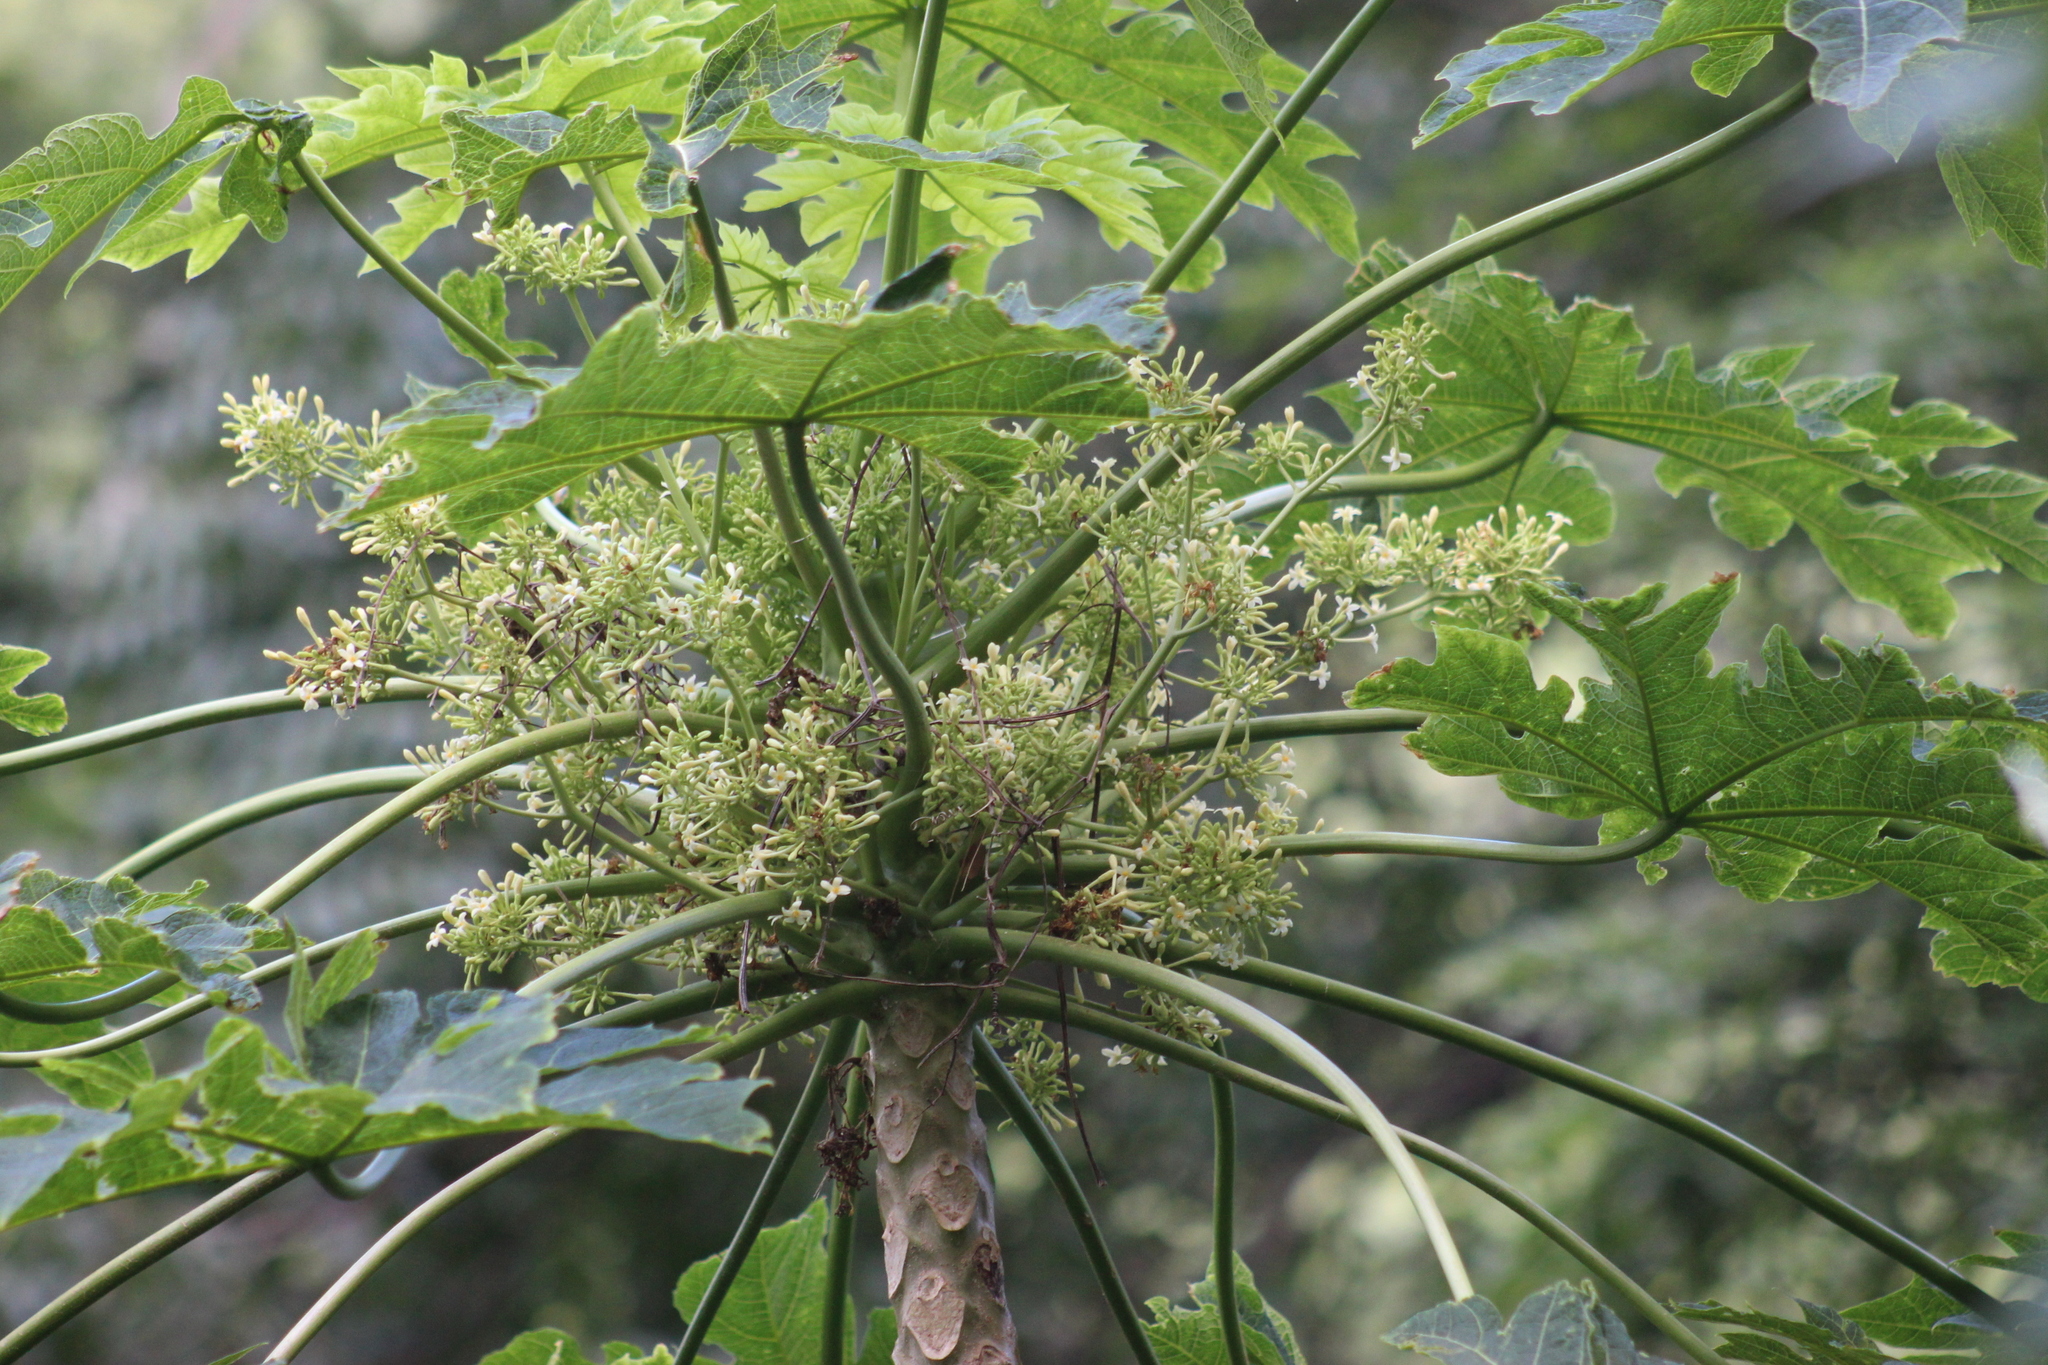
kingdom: Plantae
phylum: Tracheophyta
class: Magnoliopsida
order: Brassicales
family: Caricaceae
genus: Carica
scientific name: Carica papaya
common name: Papaya
